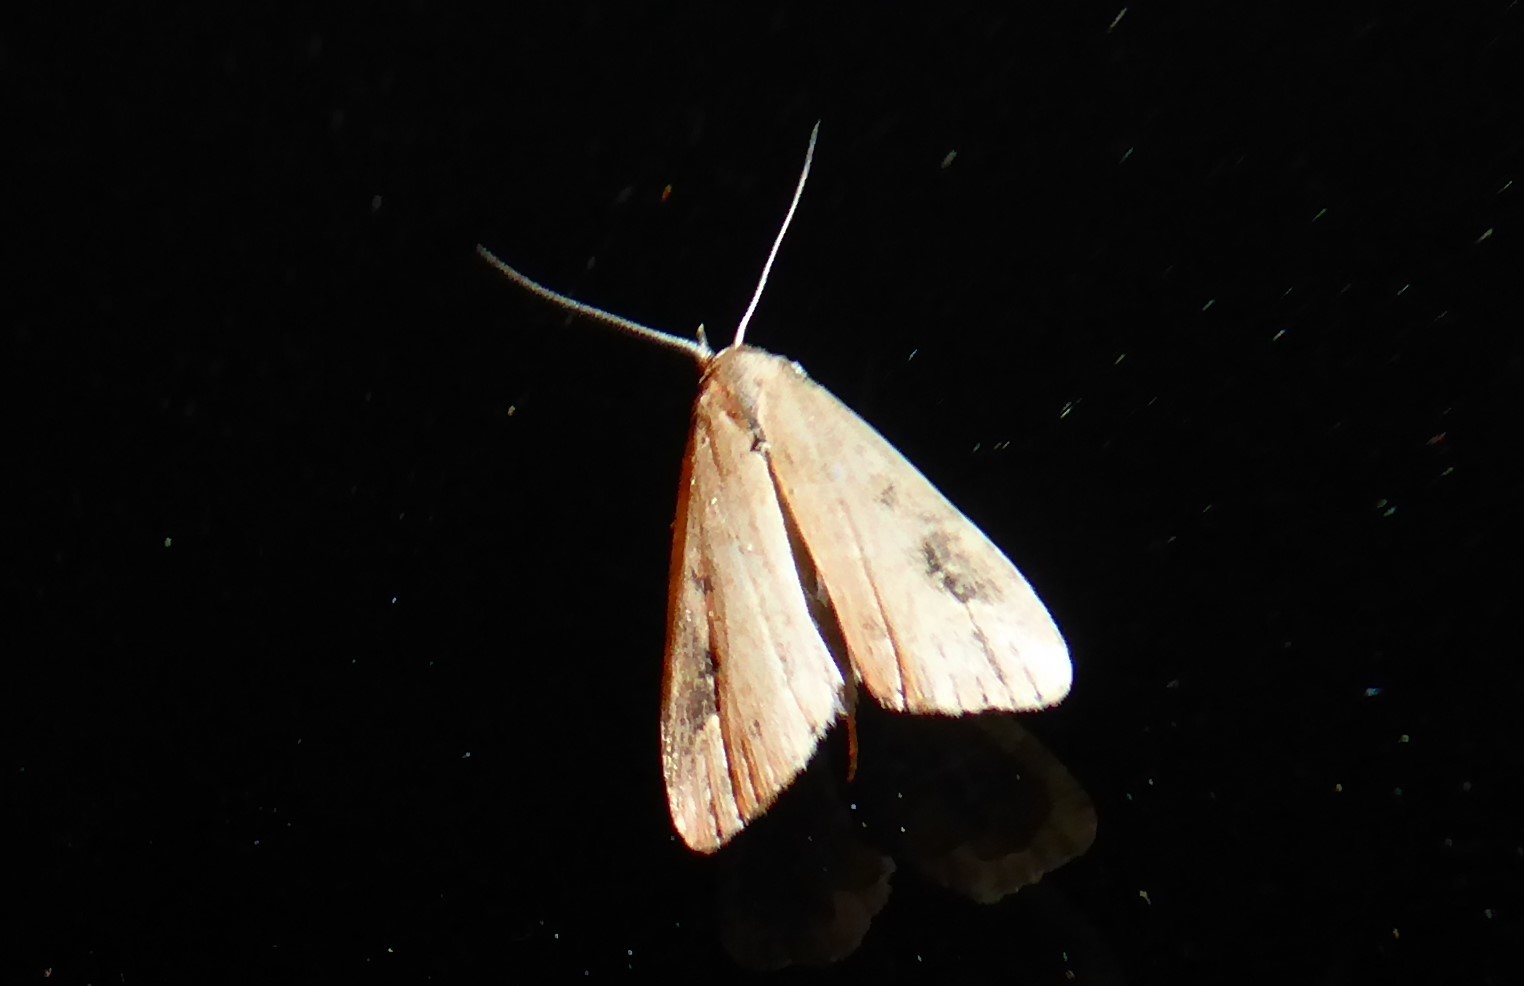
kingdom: Animalia
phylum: Arthropoda
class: Insecta
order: Lepidoptera
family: Erebidae
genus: Schrankia
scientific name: Schrankia costaestrigalis
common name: Pinion-streaked snout
